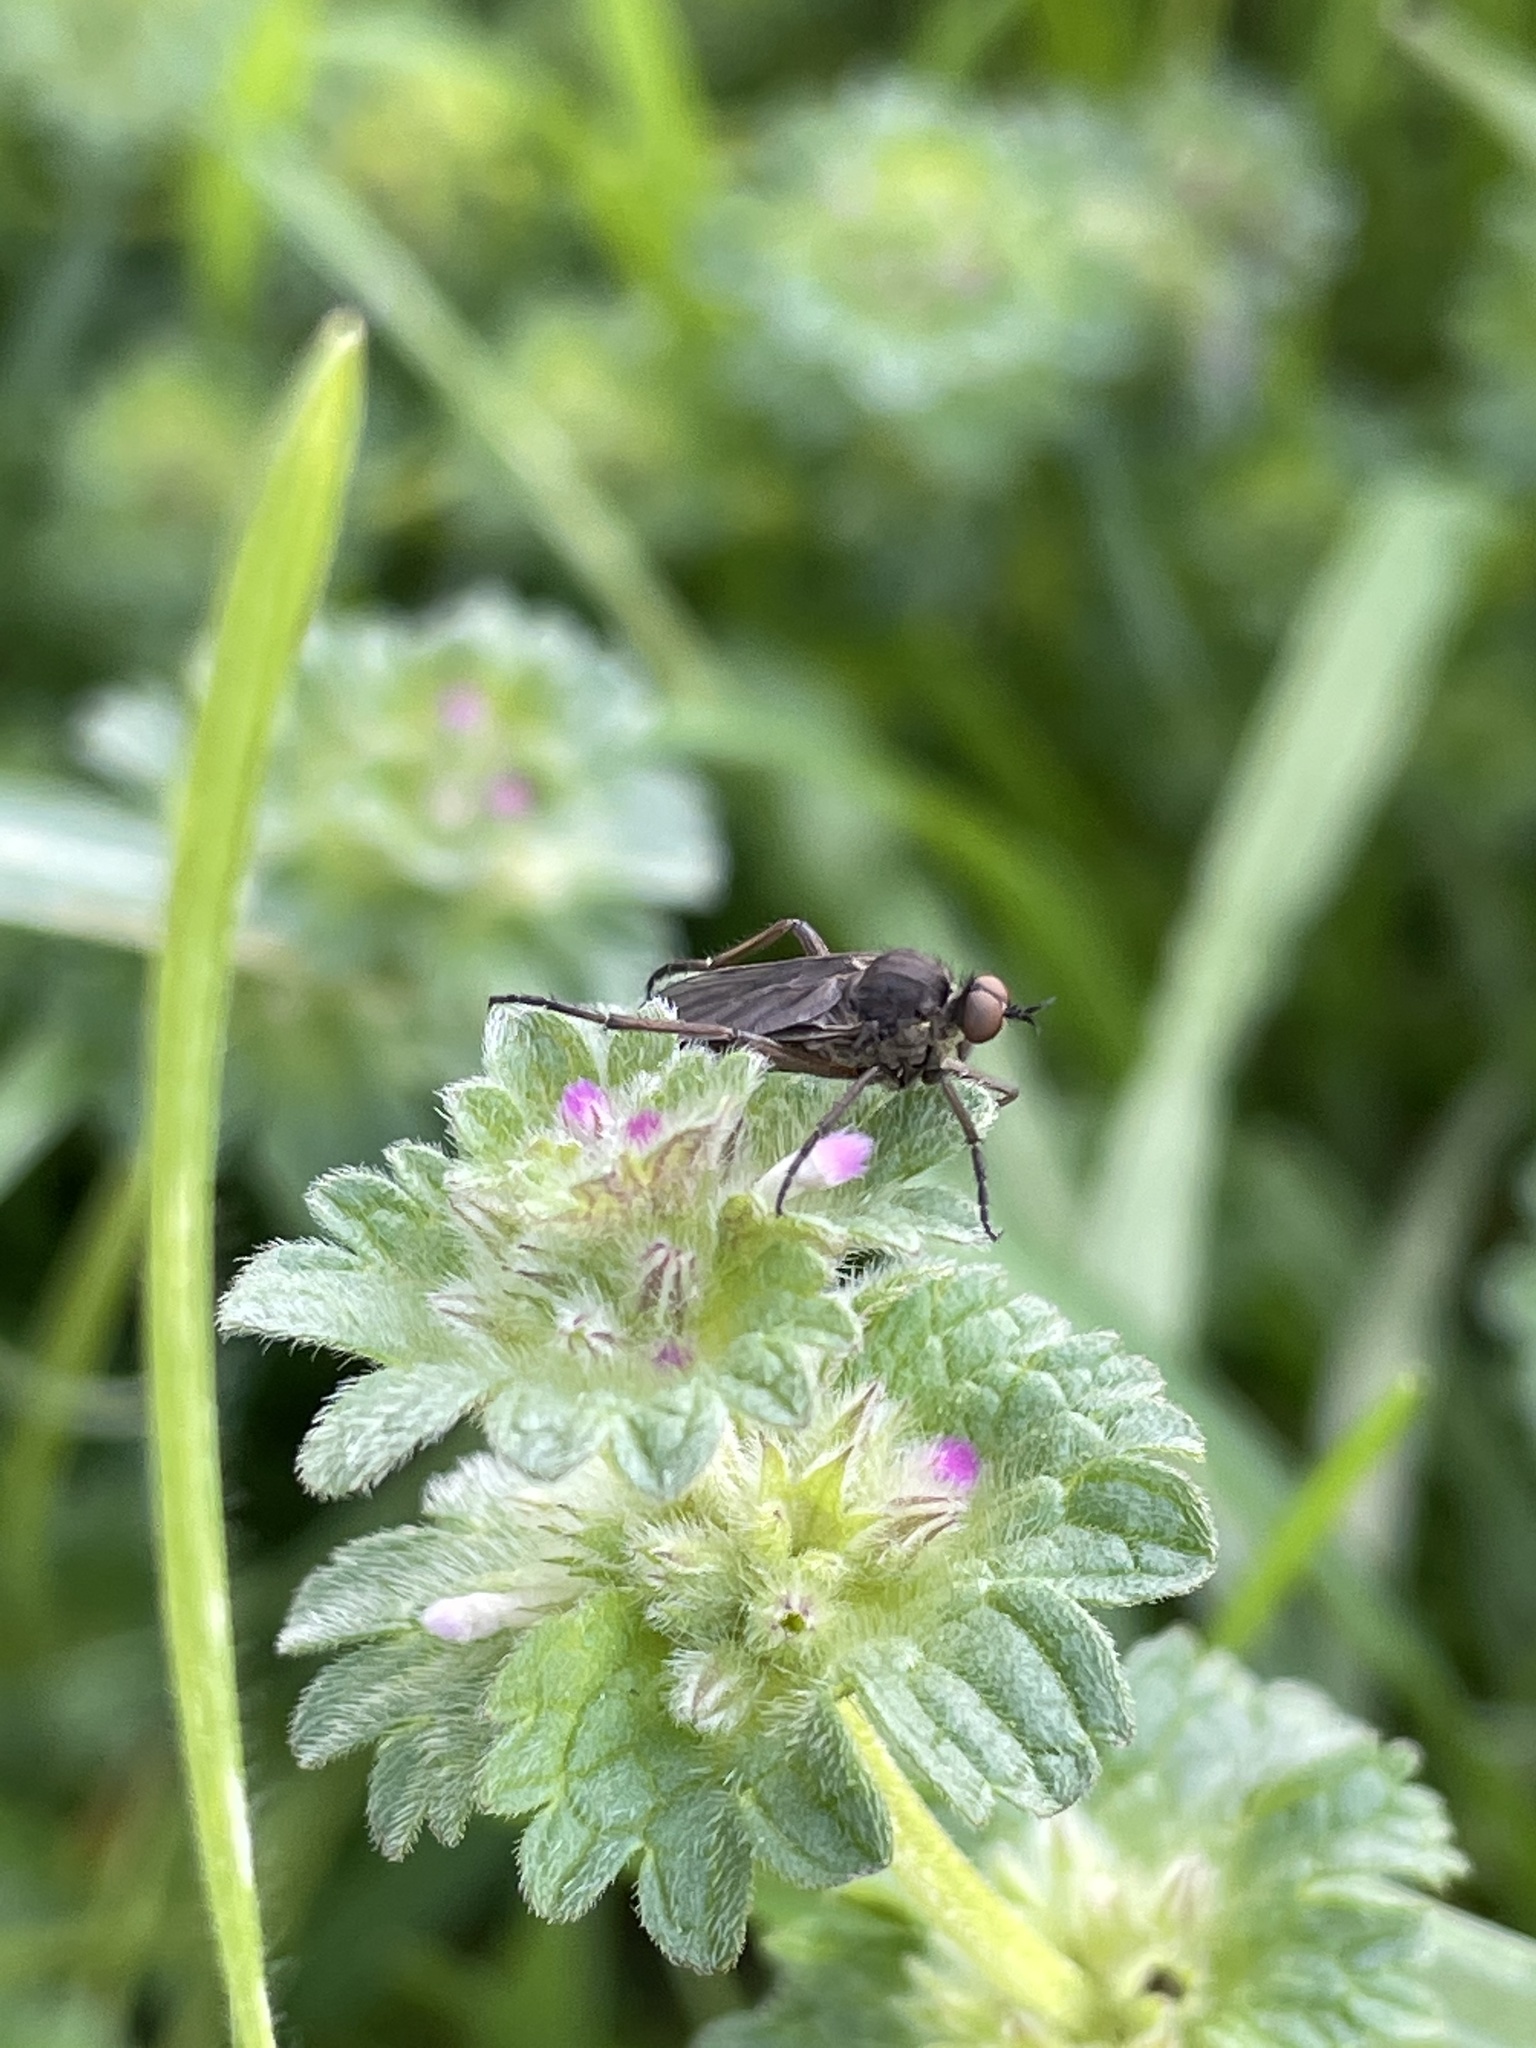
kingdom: Plantae
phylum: Tracheophyta
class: Magnoliopsida
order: Lamiales
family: Lamiaceae
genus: Lamium
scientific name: Lamium amplexicaule
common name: Henbit dead-nettle
